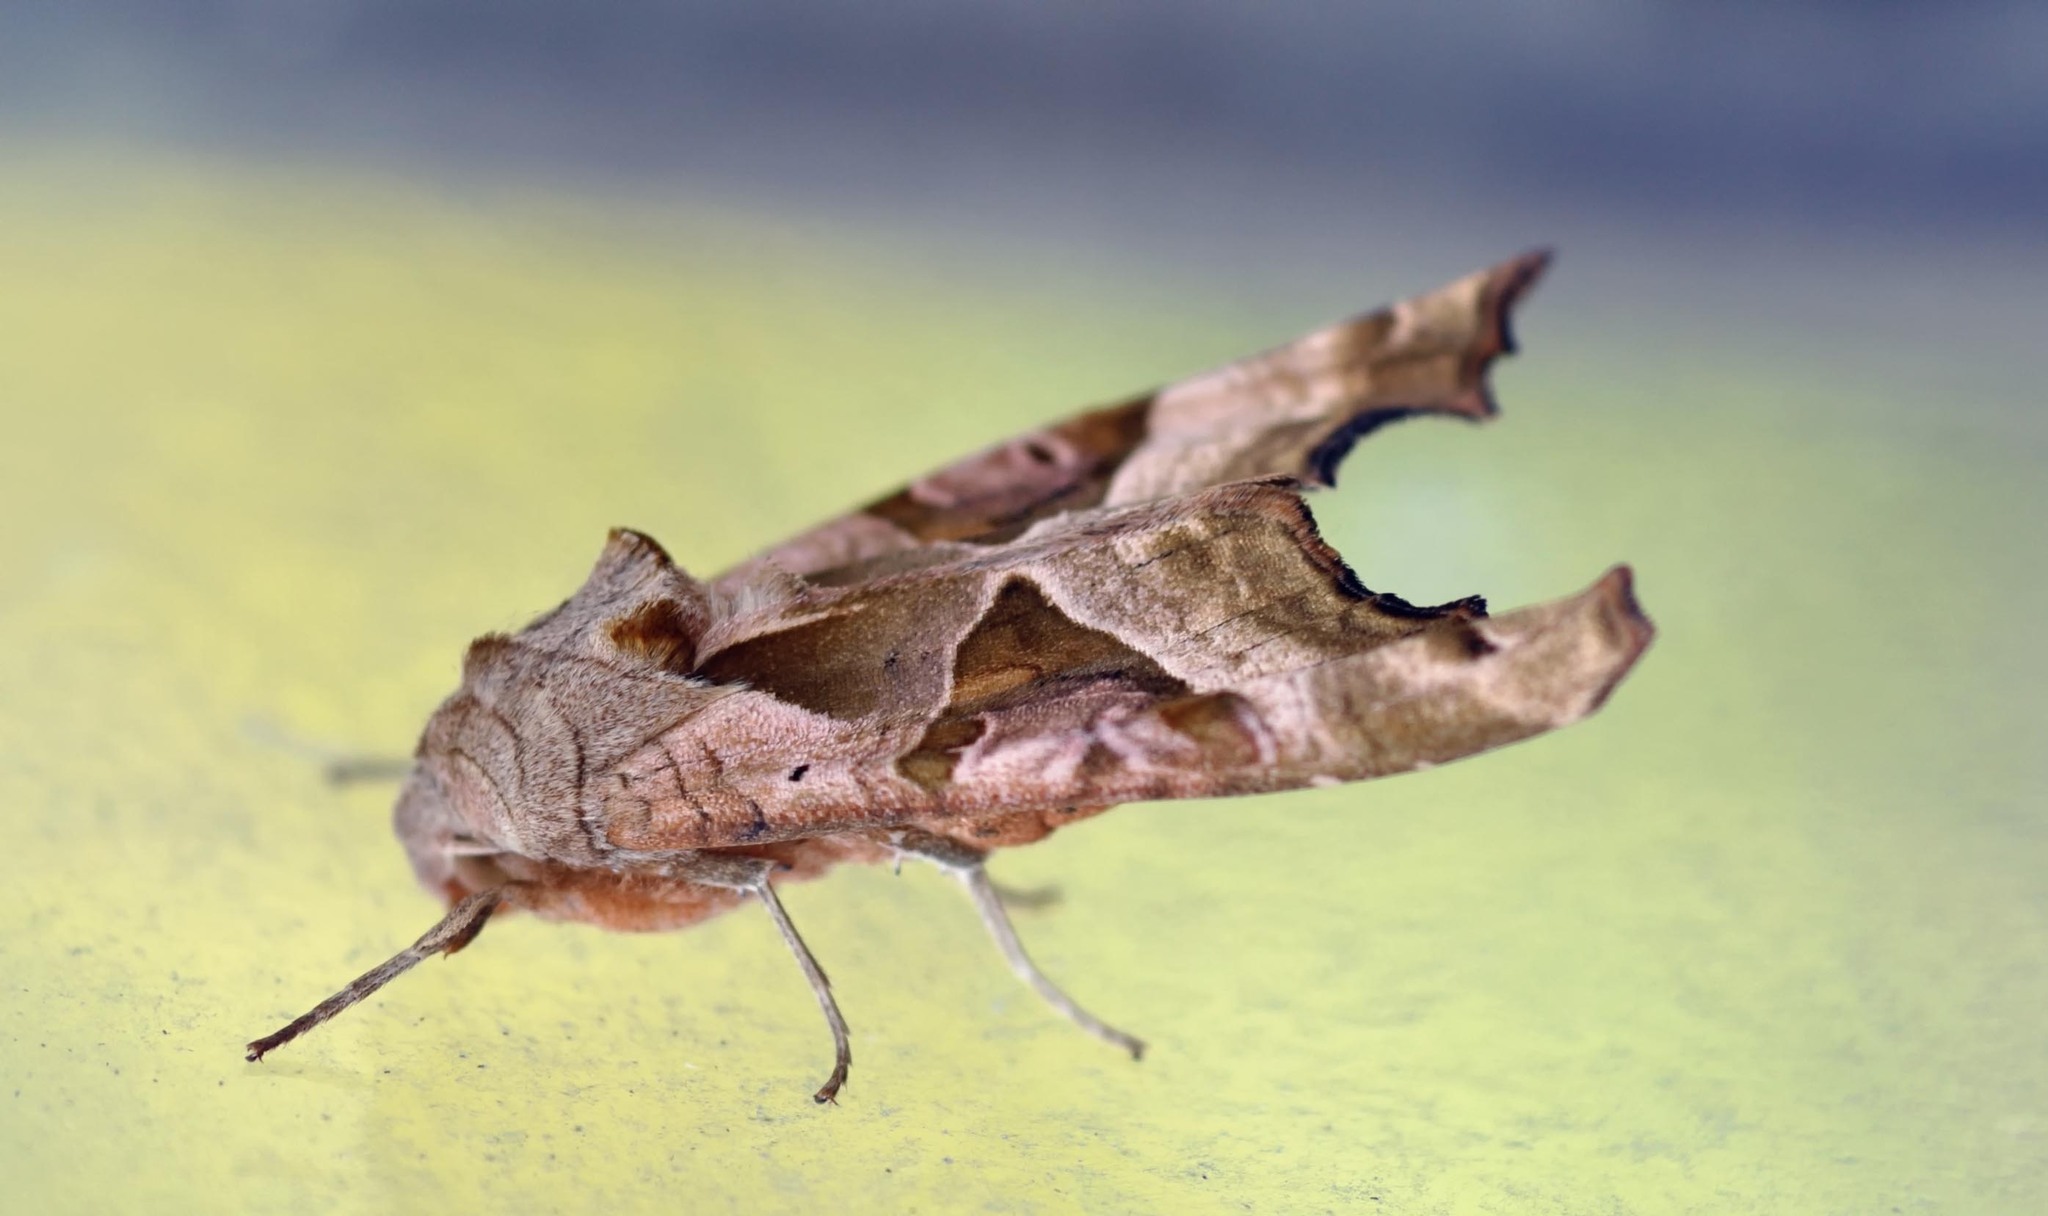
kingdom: Animalia
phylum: Arthropoda
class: Insecta
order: Lepidoptera
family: Noctuidae
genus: Phlogophora
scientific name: Phlogophora meticulosa
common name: Angle shades
